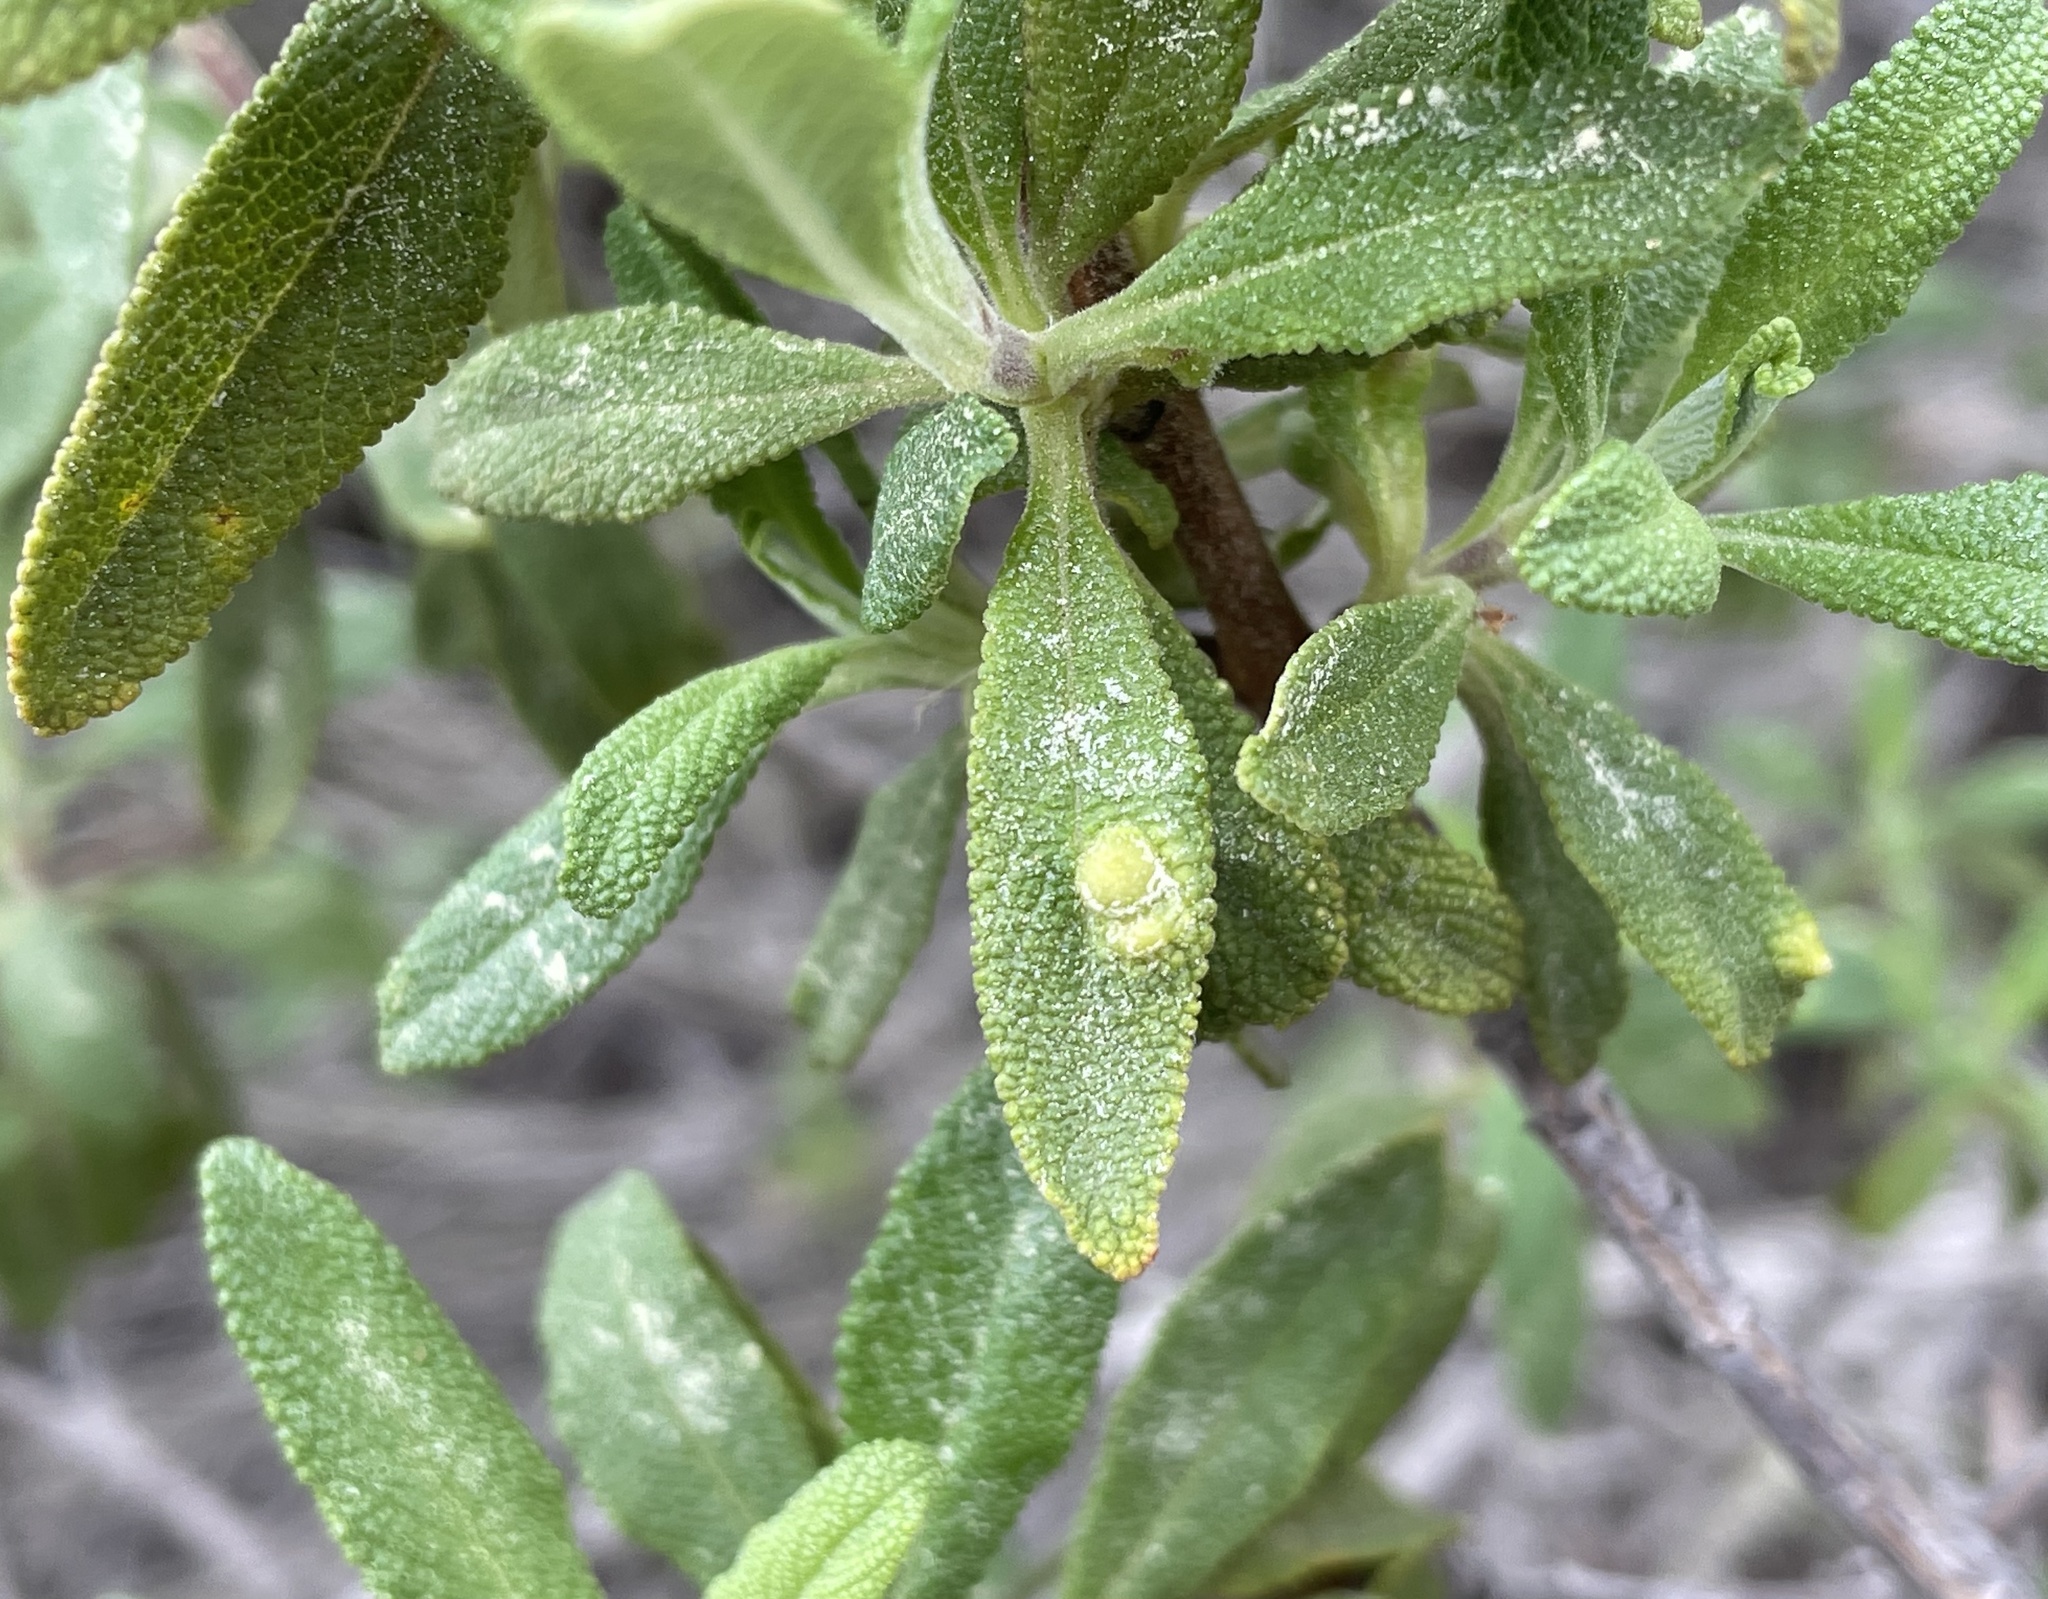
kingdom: Animalia
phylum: Arthropoda
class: Insecta
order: Diptera
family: Cecidomyiidae
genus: Rhopalomyia
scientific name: Rhopalomyia audibertiae
